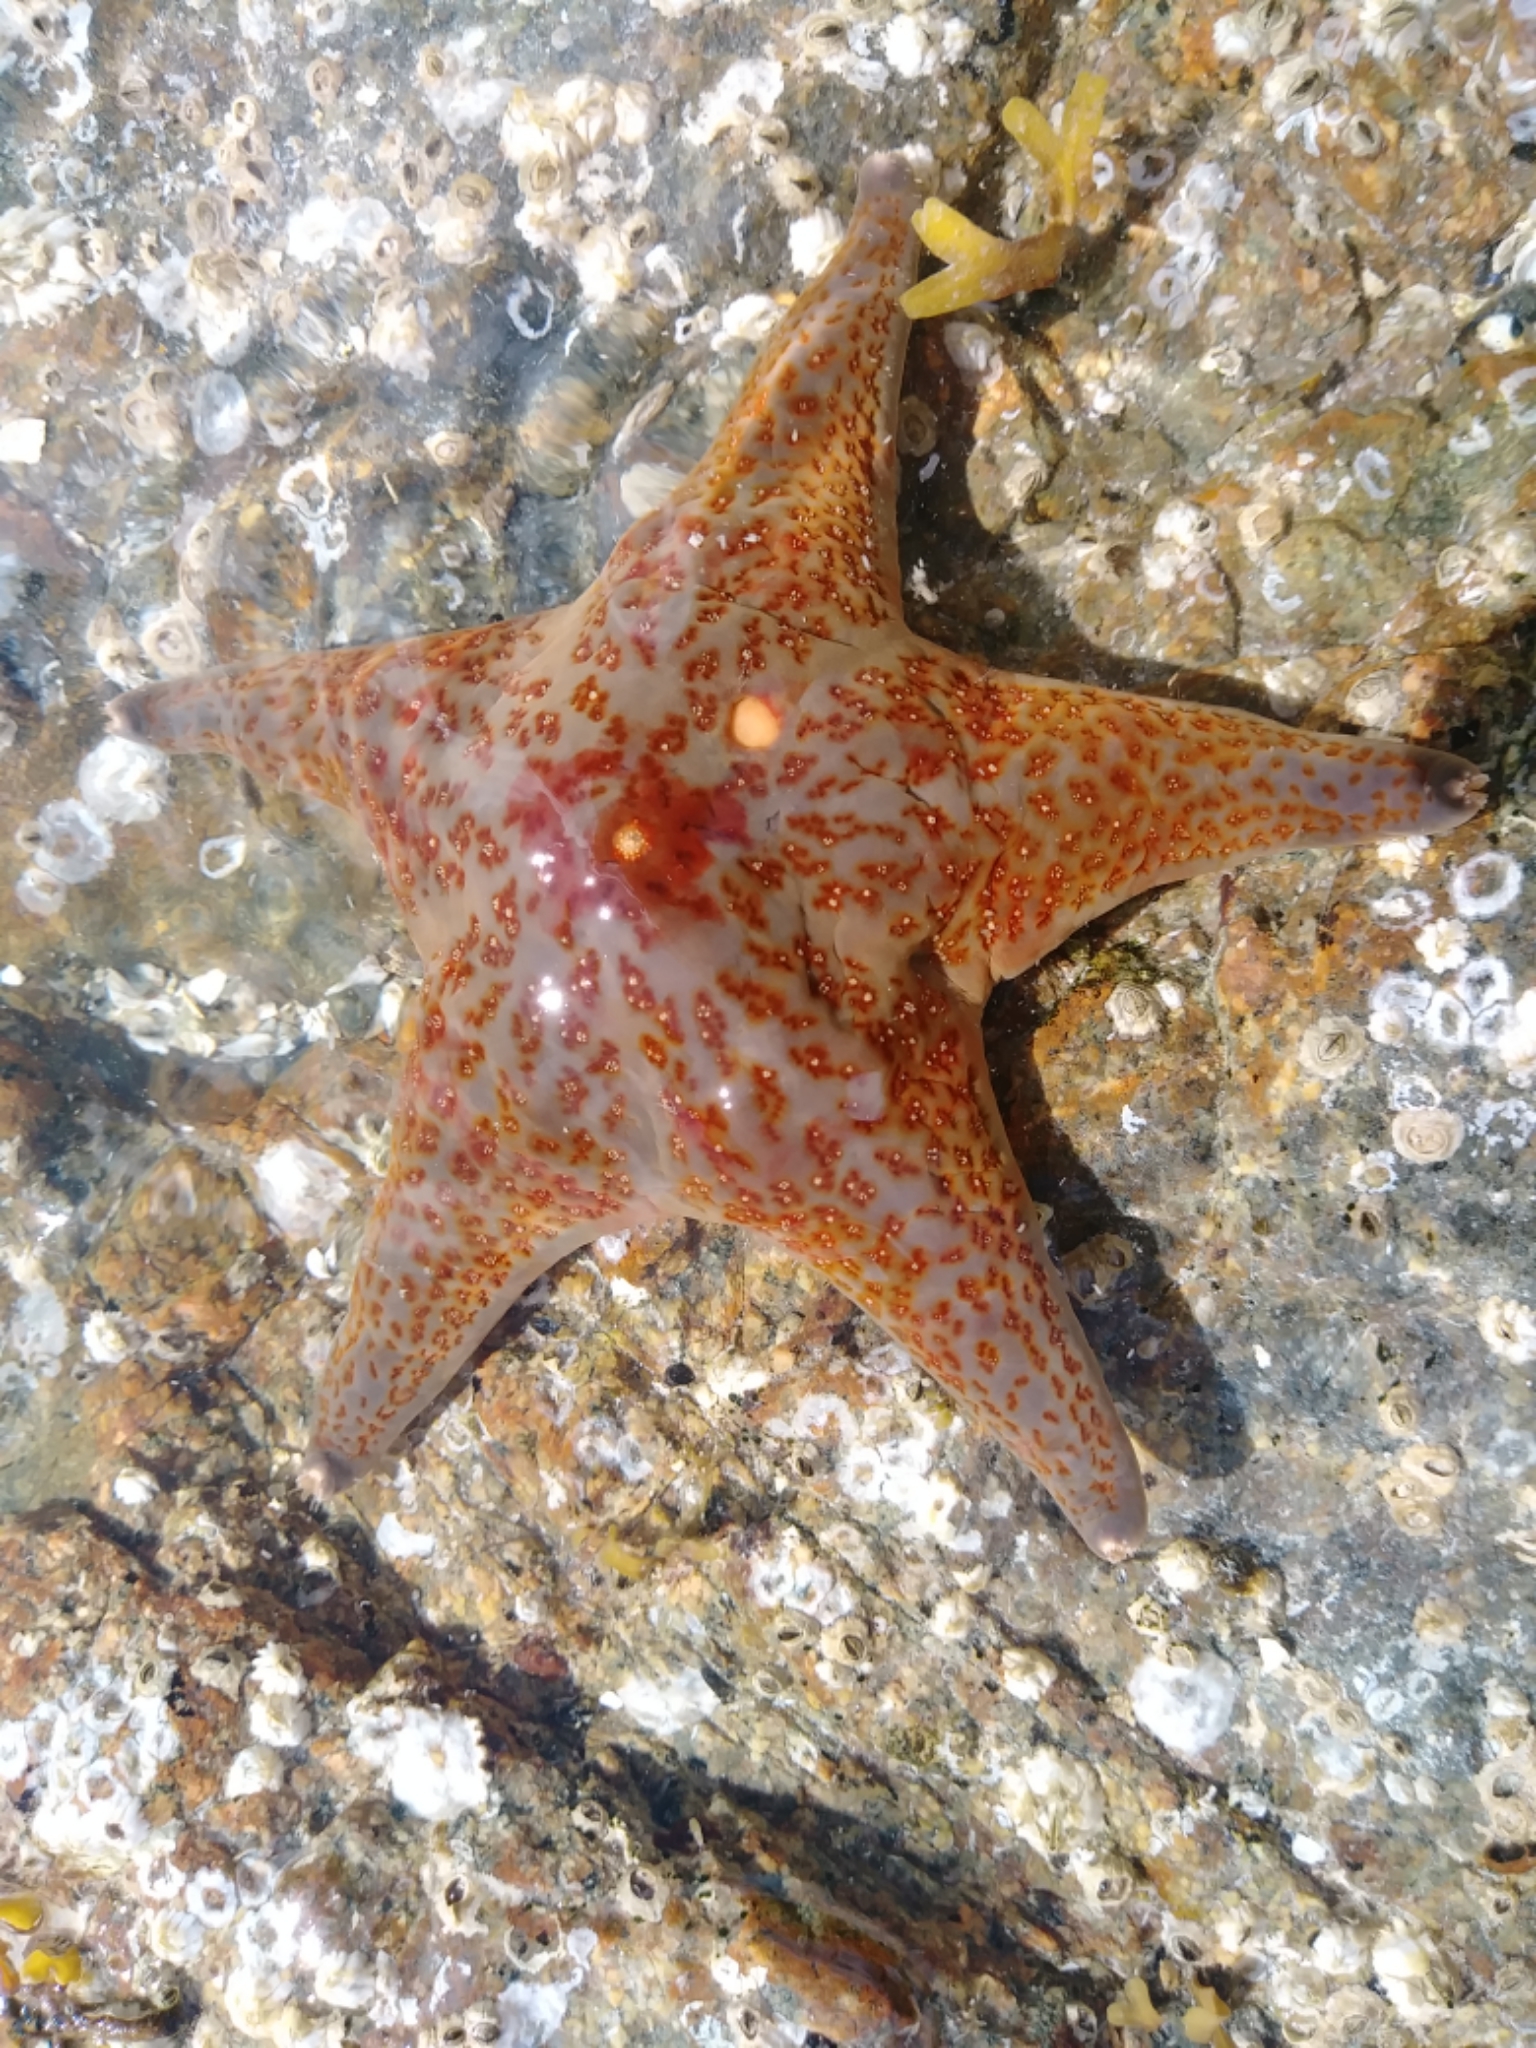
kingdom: Animalia
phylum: Echinodermata
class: Asteroidea
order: Valvatida
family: Asteropseidae
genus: Dermasterias
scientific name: Dermasterias imbricata
